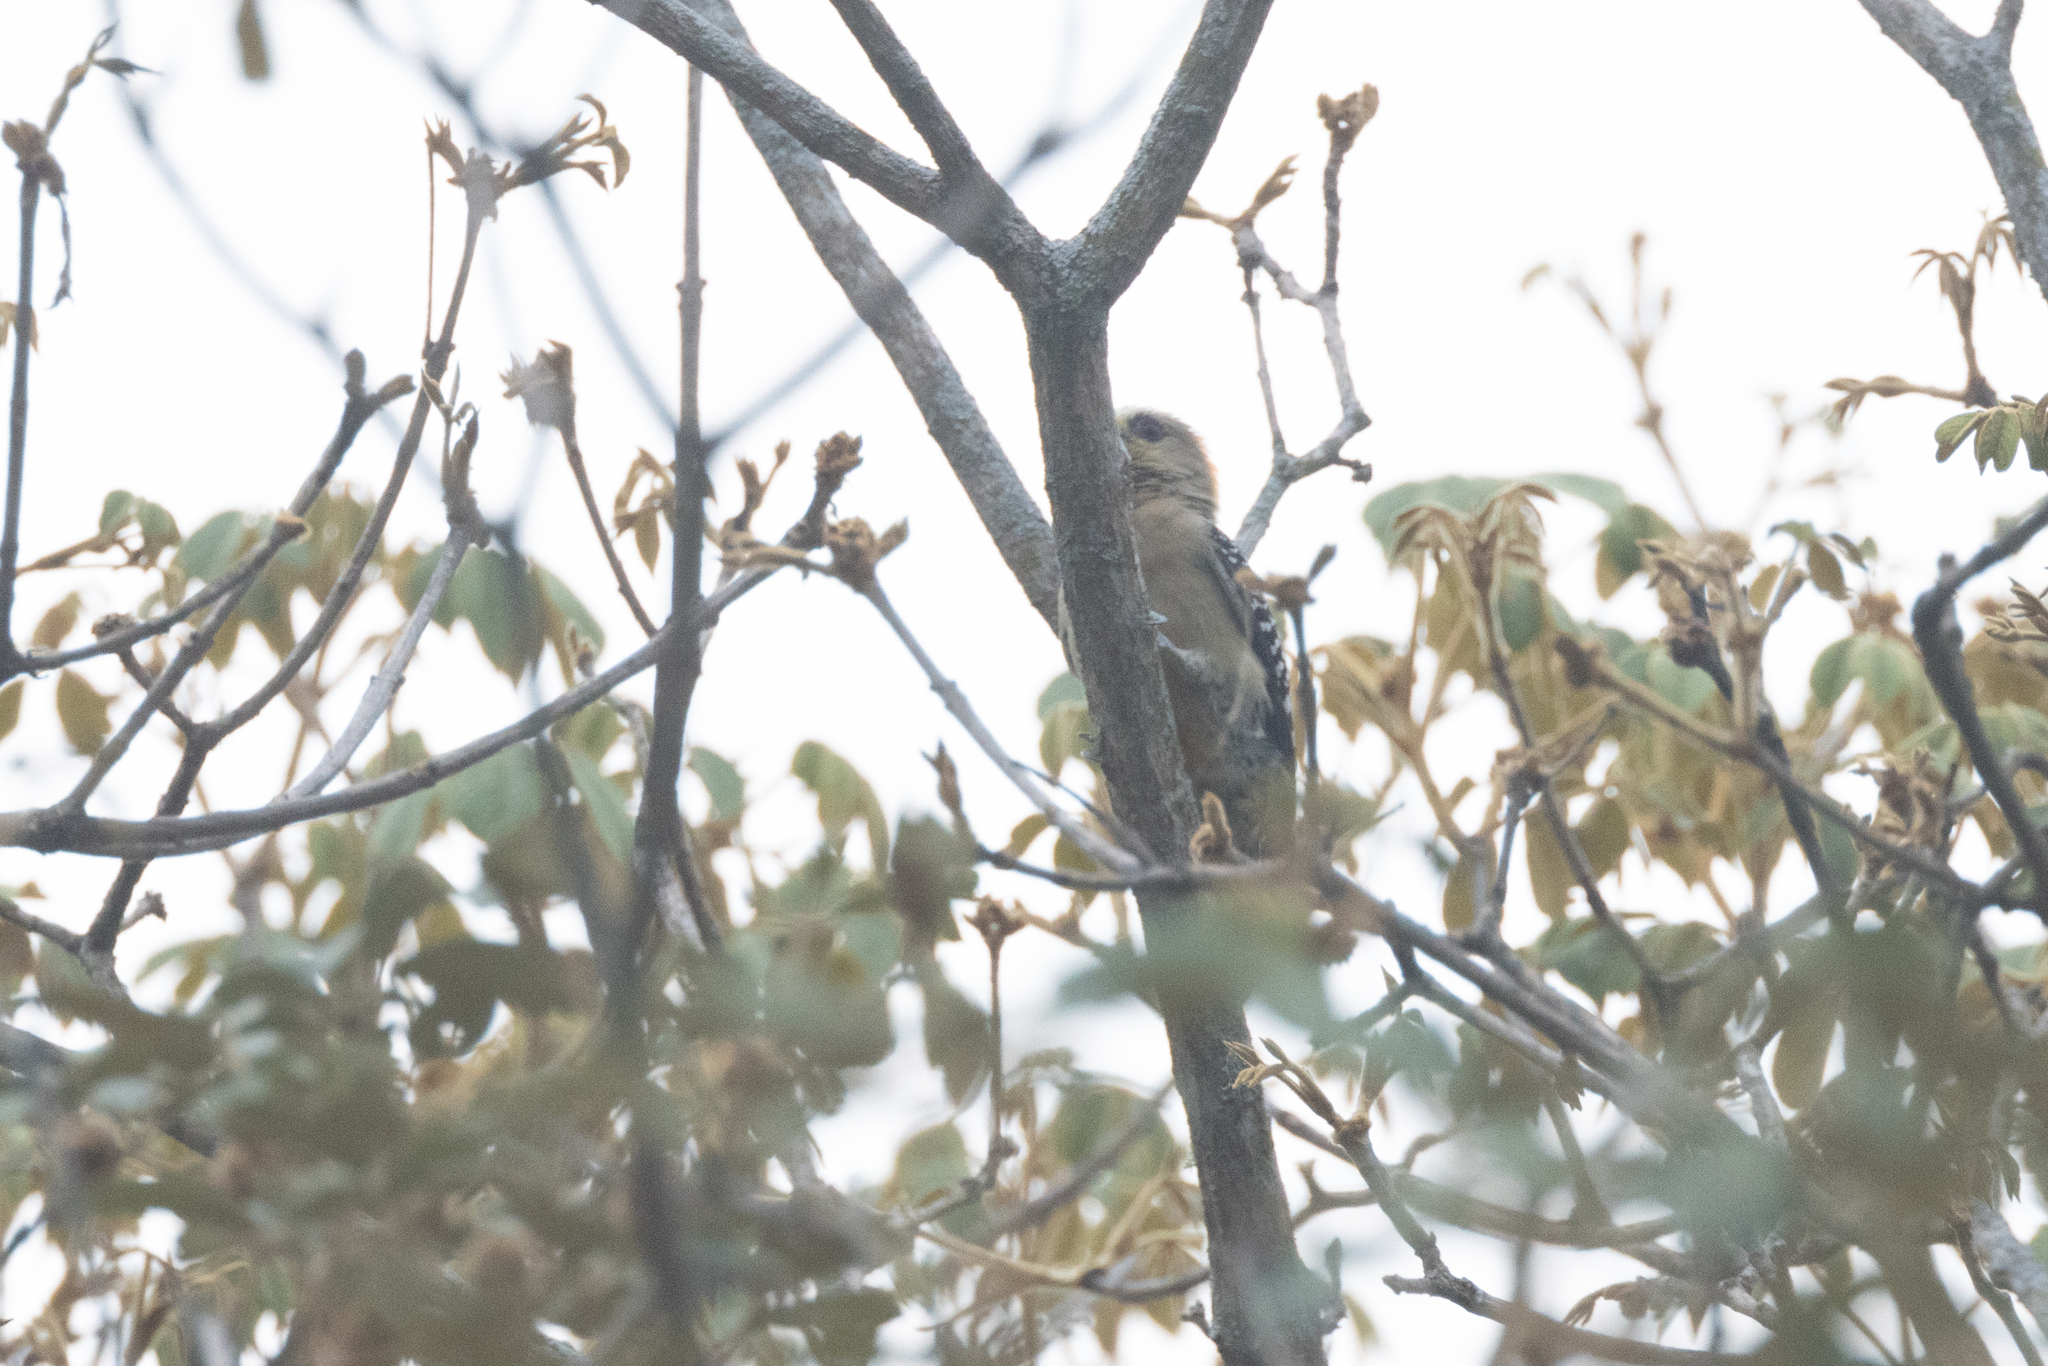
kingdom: Animalia
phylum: Chordata
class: Aves
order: Piciformes
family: Picidae
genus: Melanerpes
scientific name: Melanerpes rubricapillus
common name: Red-crowned woodpecker
